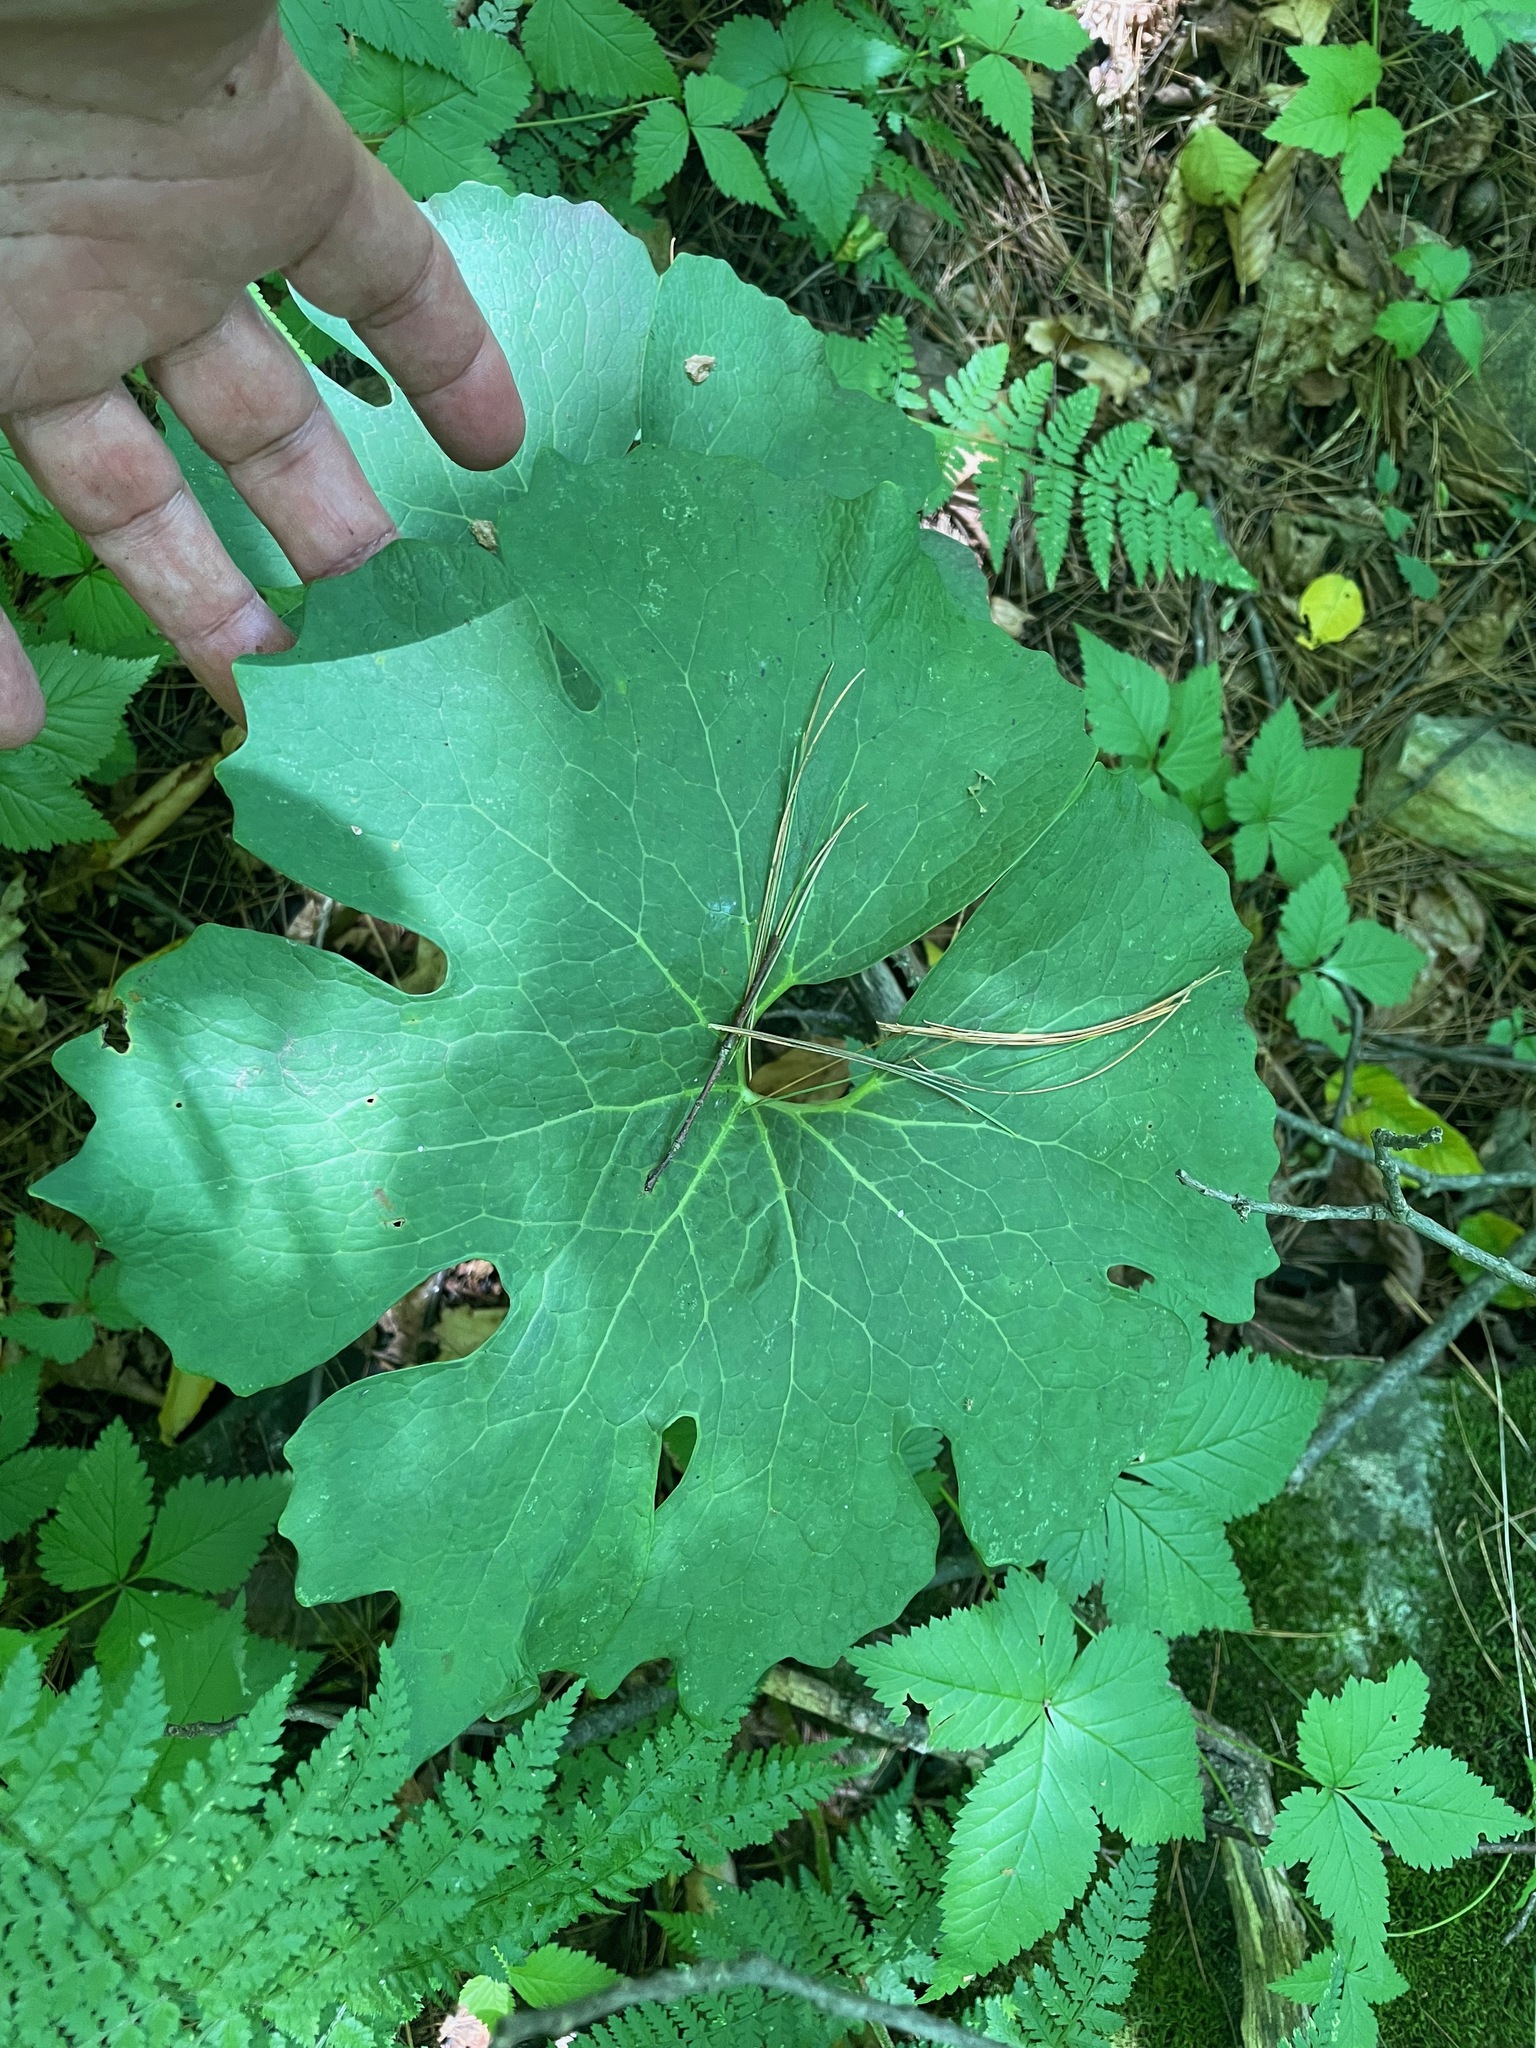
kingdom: Plantae
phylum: Tracheophyta
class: Magnoliopsida
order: Ranunculales
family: Papaveraceae
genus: Sanguinaria
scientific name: Sanguinaria canadensis
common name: Bloodroot
